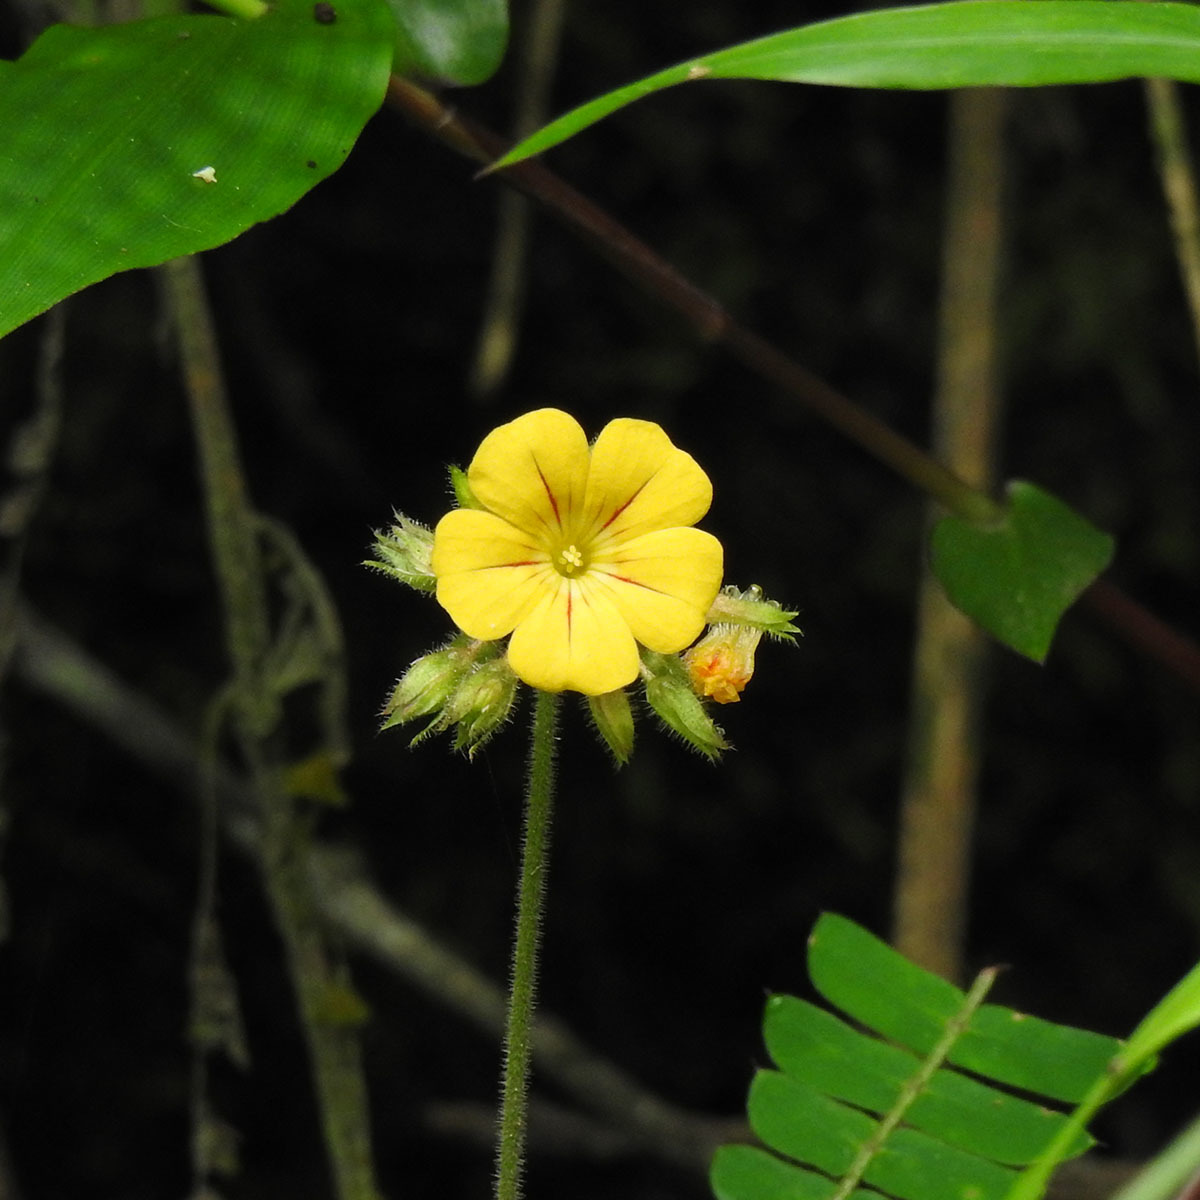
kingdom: Plantae
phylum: Tracheophyta
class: Magnoliopsida
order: Oxalidales
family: Oxalidaceae
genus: Biophytum
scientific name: Biophytum sensitivum
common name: Lifeplant
